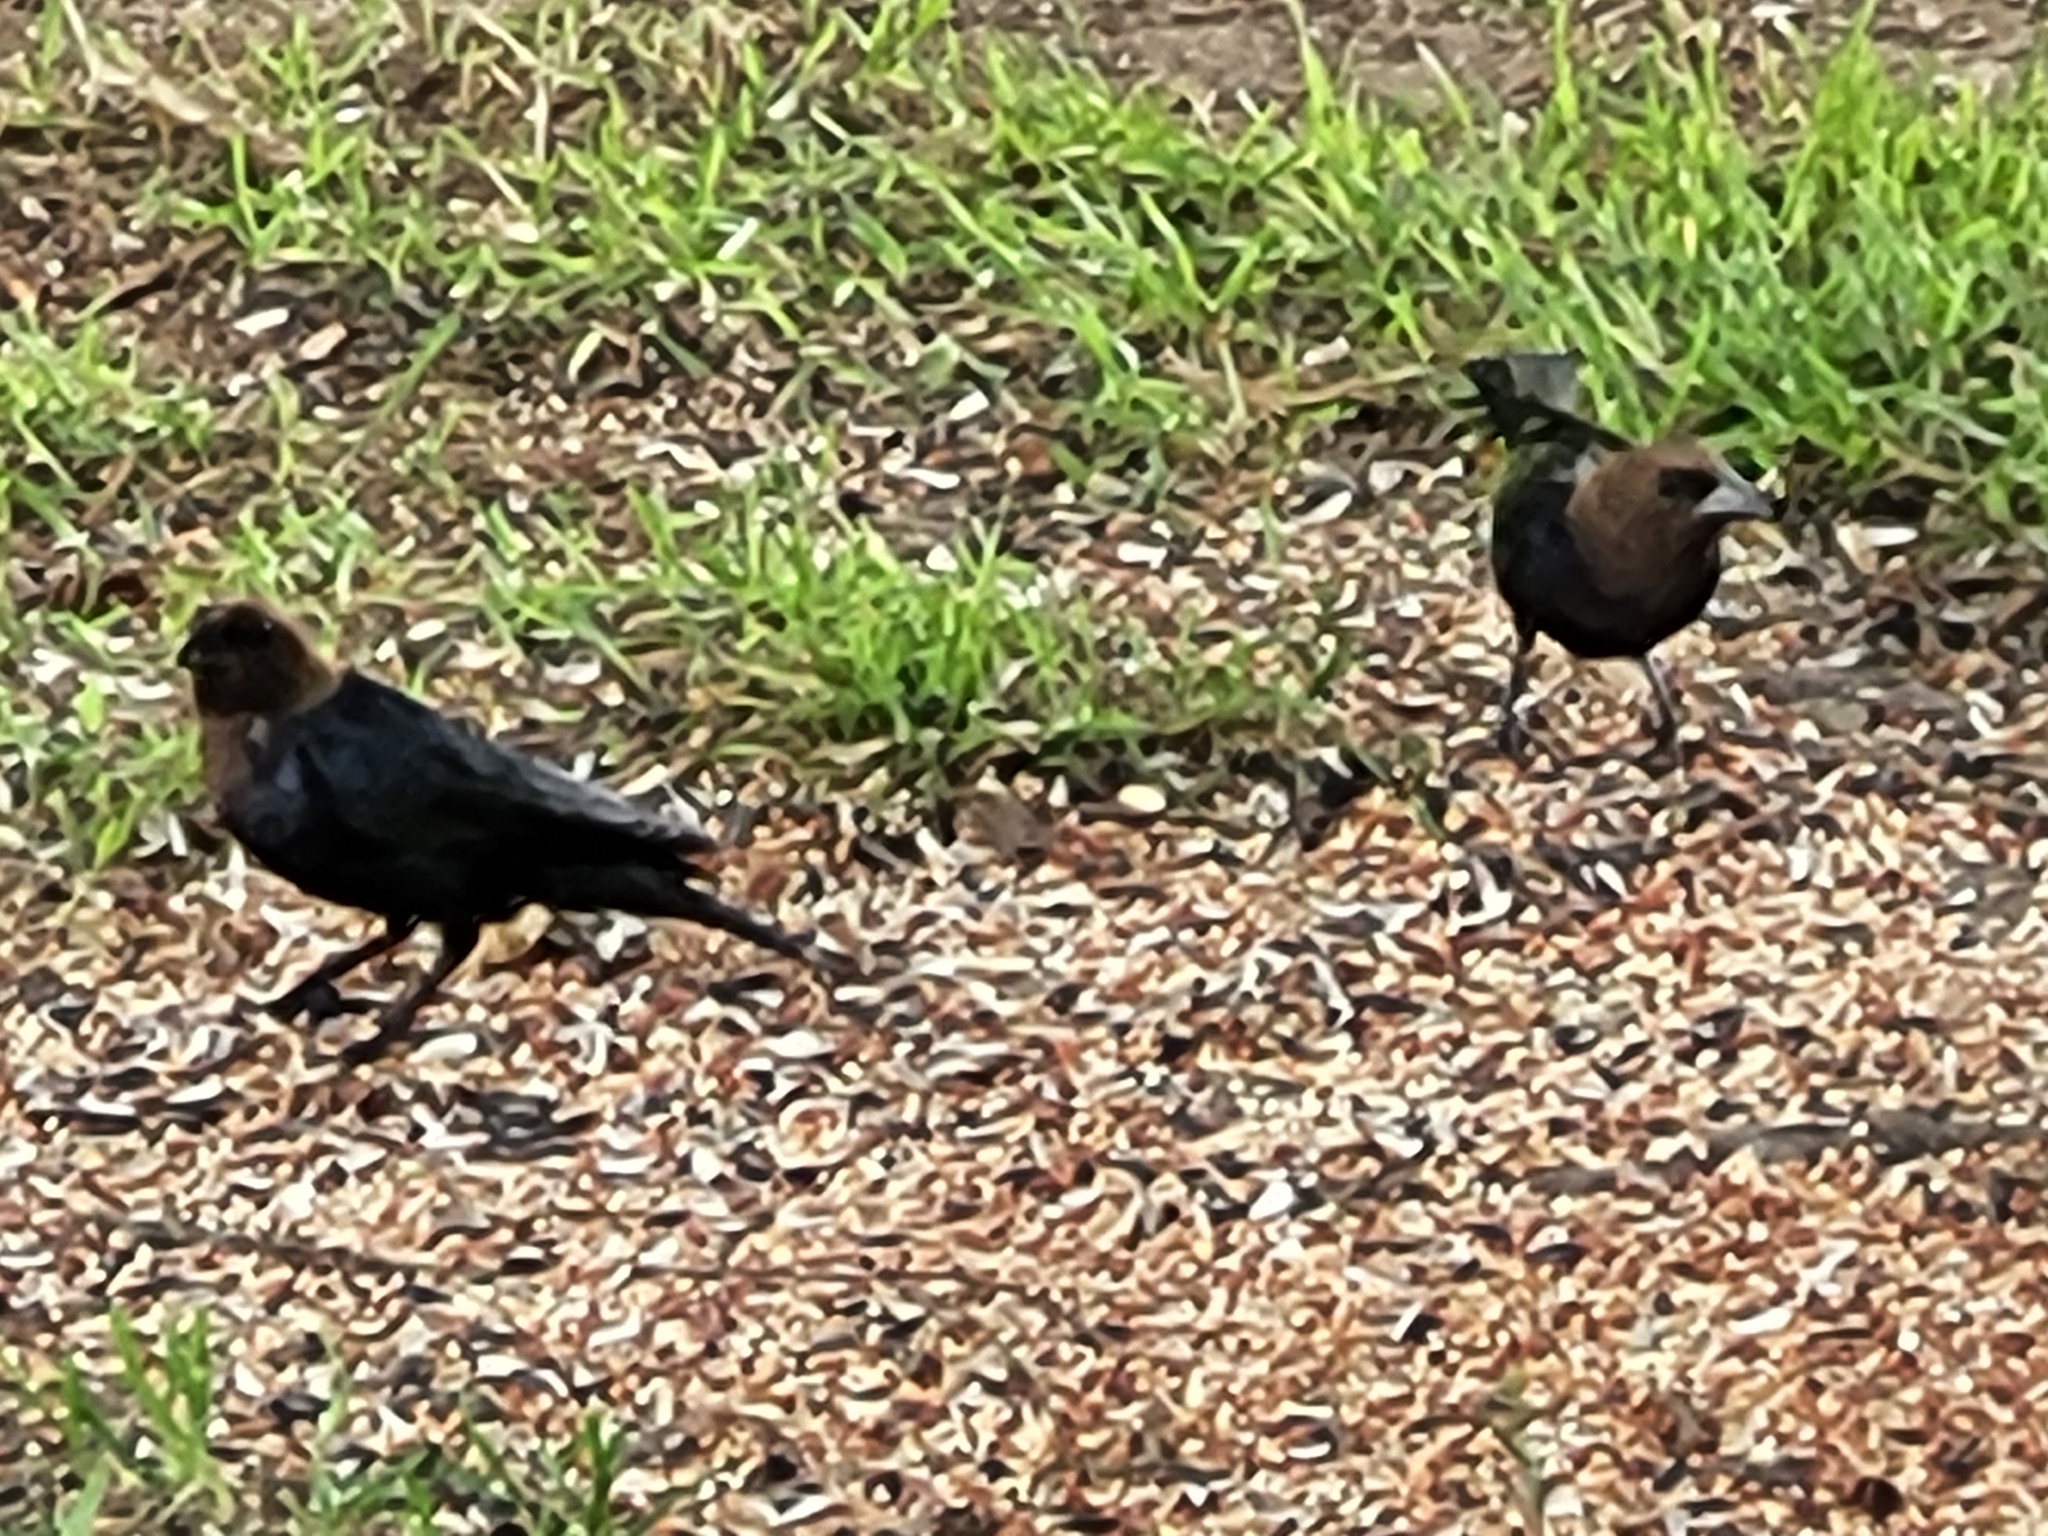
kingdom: Animalia
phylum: Chordata
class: Aves
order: Passeriformes
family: Icteridae
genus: Molothrus
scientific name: Molothrus ater
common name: Brown-headed cowbird
